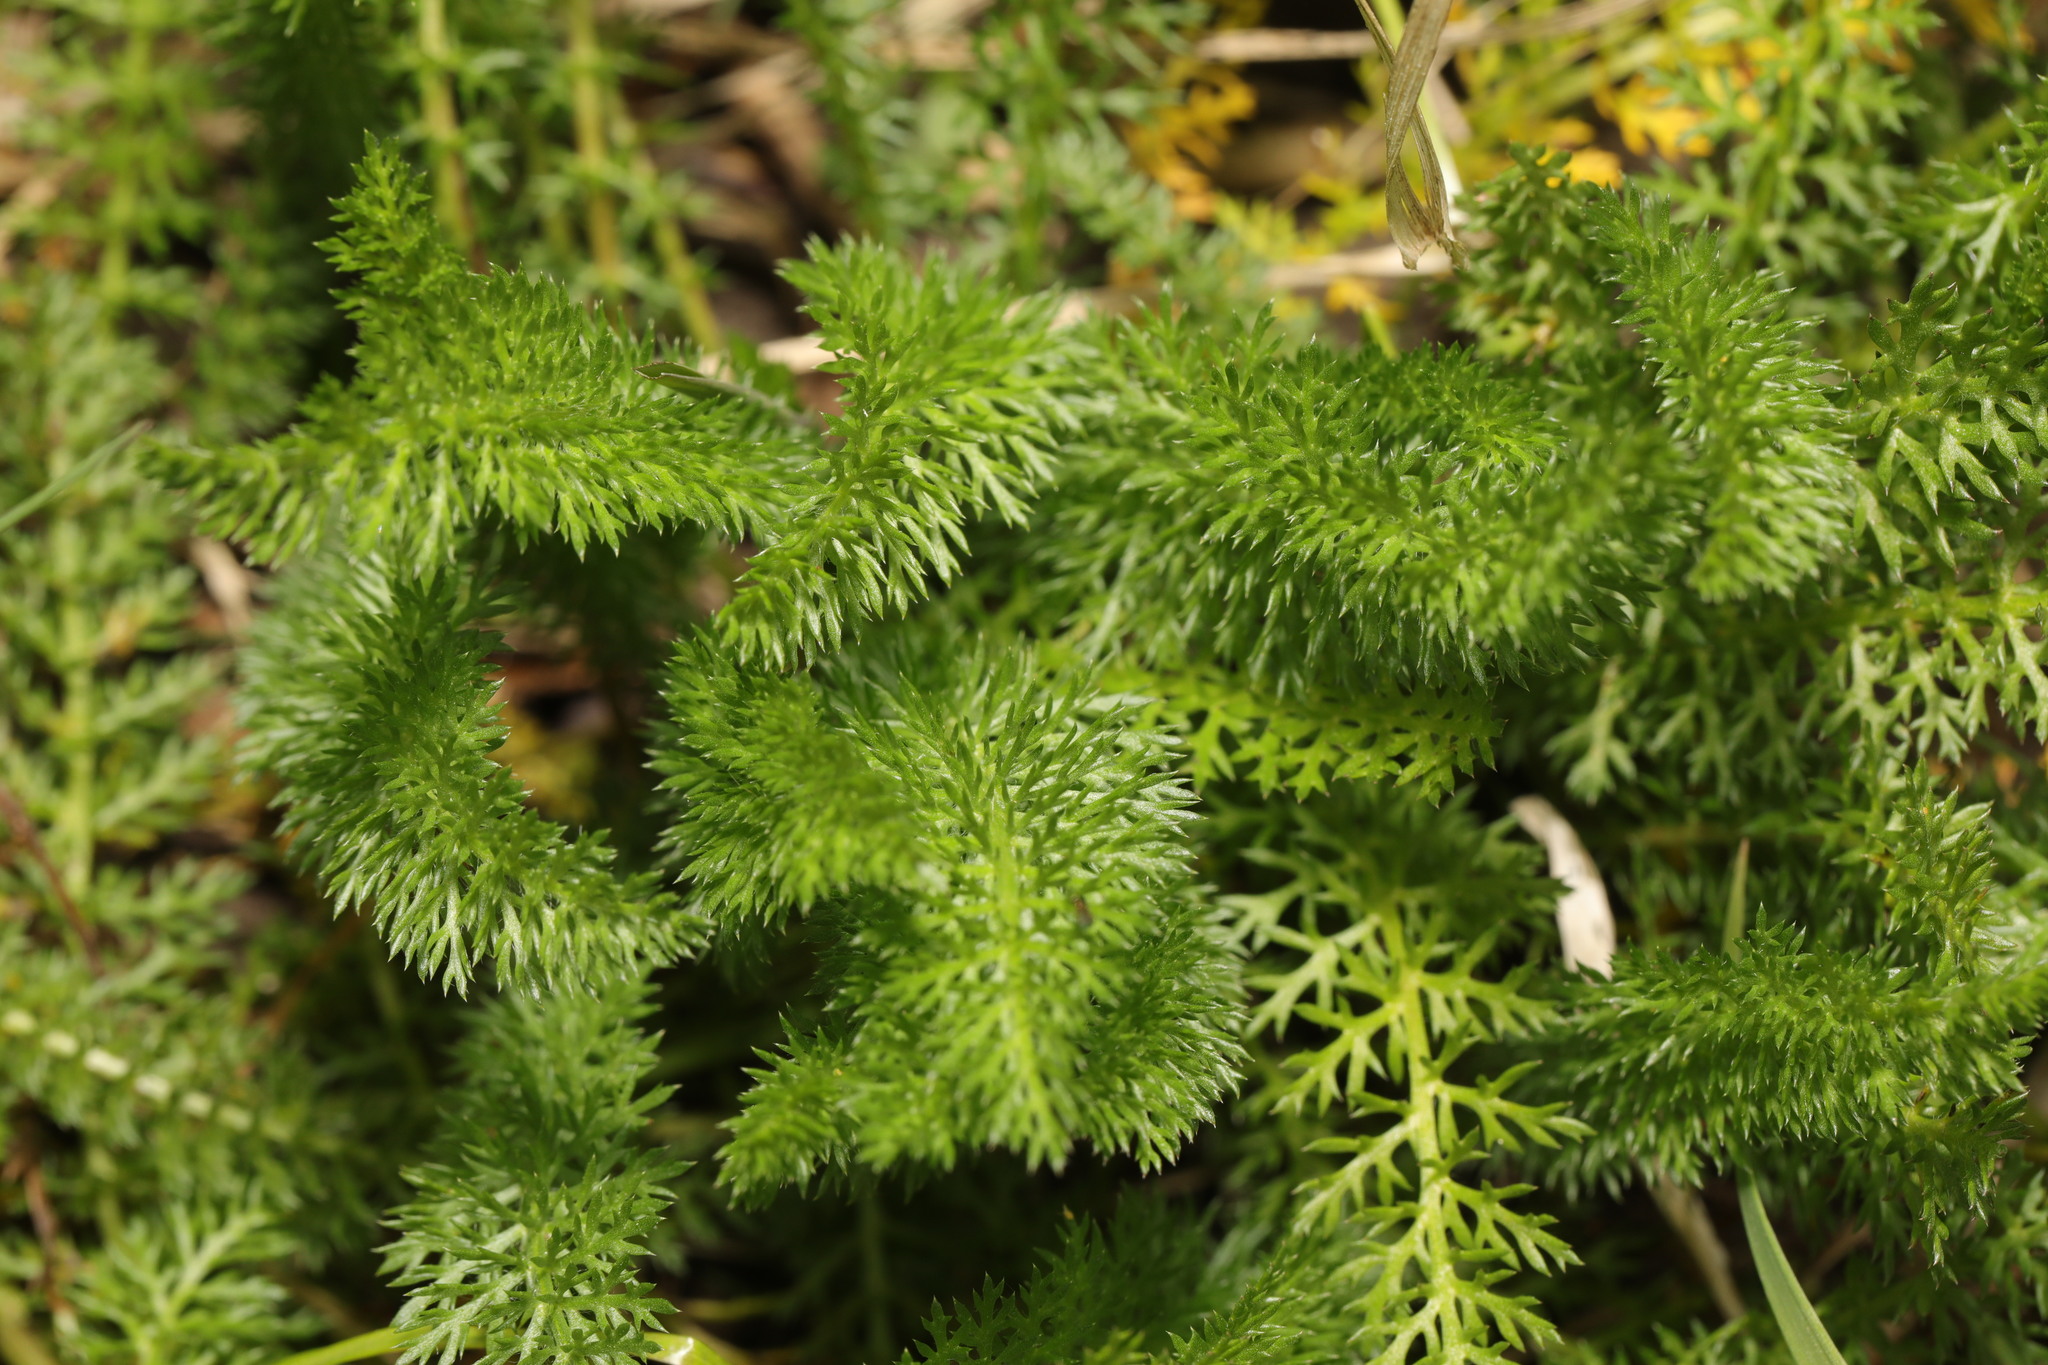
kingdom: Plantae
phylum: Tracheophyta
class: Magnoliopsida
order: Asterales
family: Asteraceae
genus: Achillea
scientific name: Achillea millefolium
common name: Yarrow
